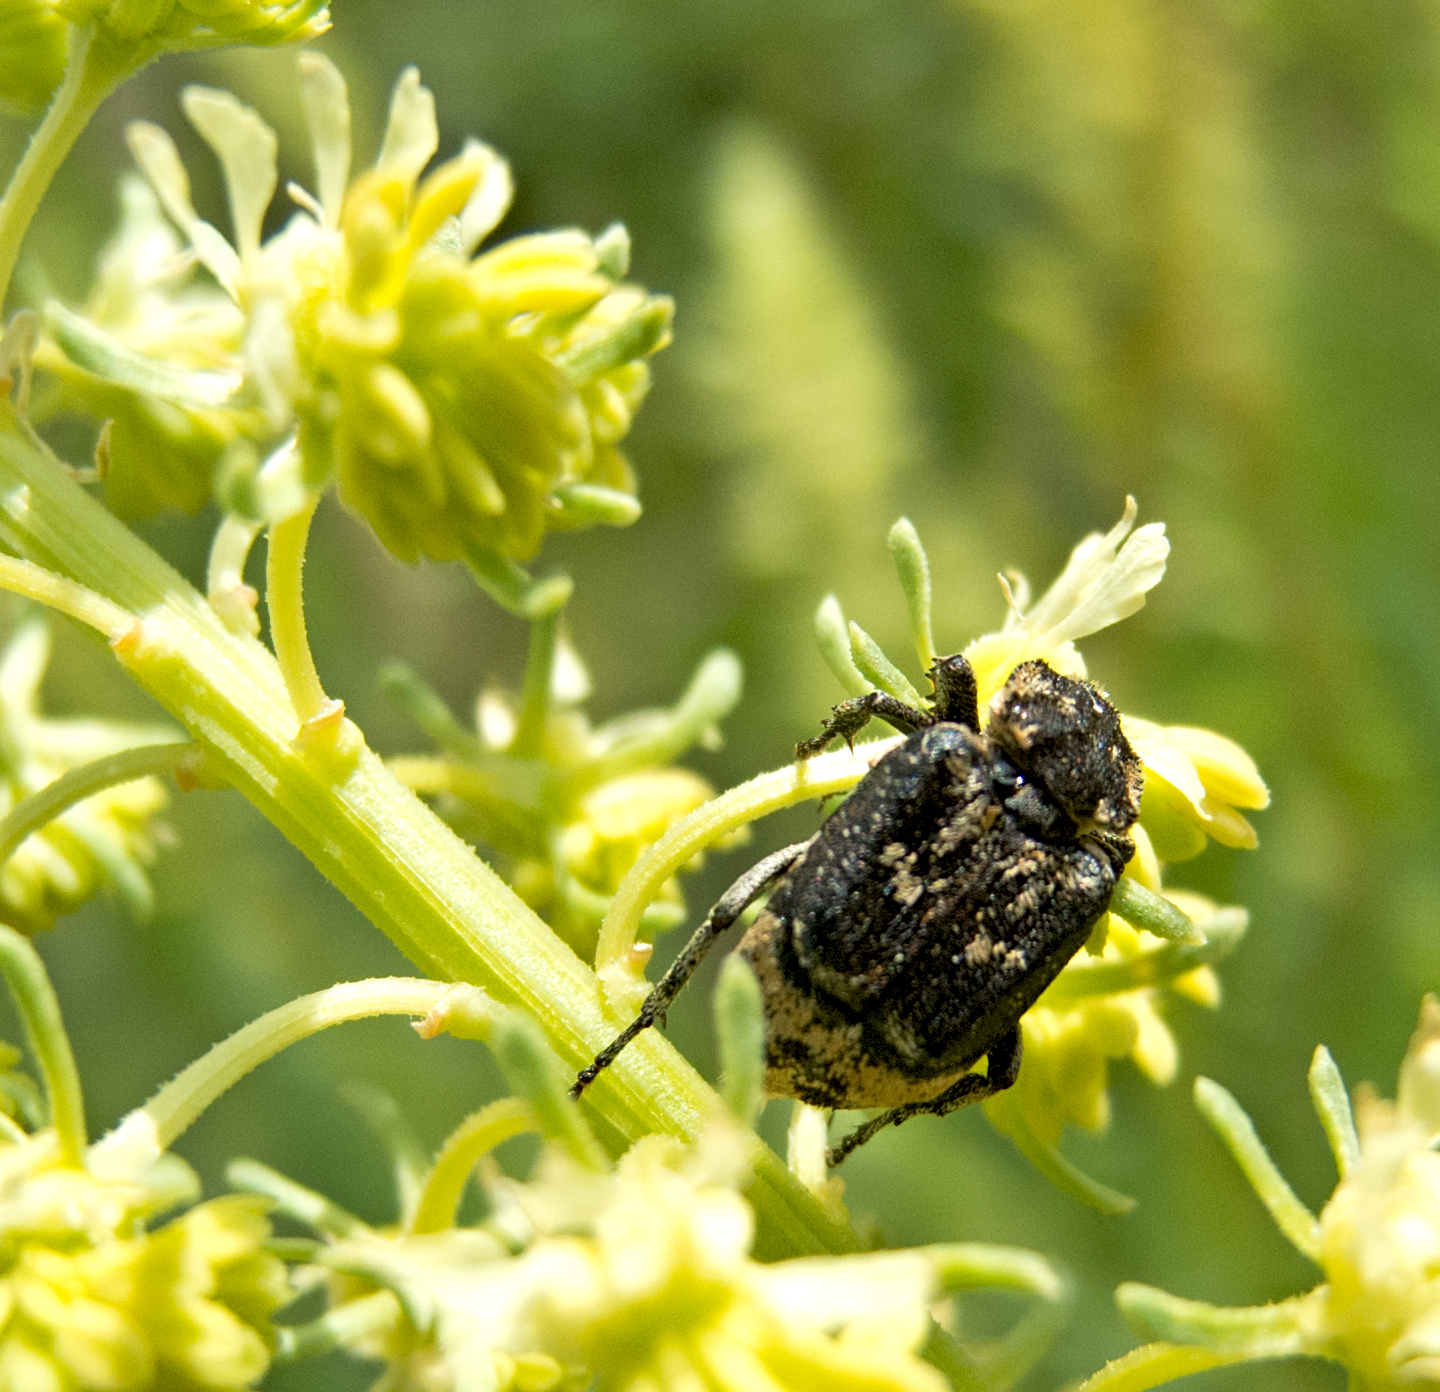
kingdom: Animalia
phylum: Arthropoda
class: Insecta
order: Coleoptera
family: Scarabaeidae
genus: Valgus
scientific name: Valgus hemipterus
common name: Bug flower chafer
